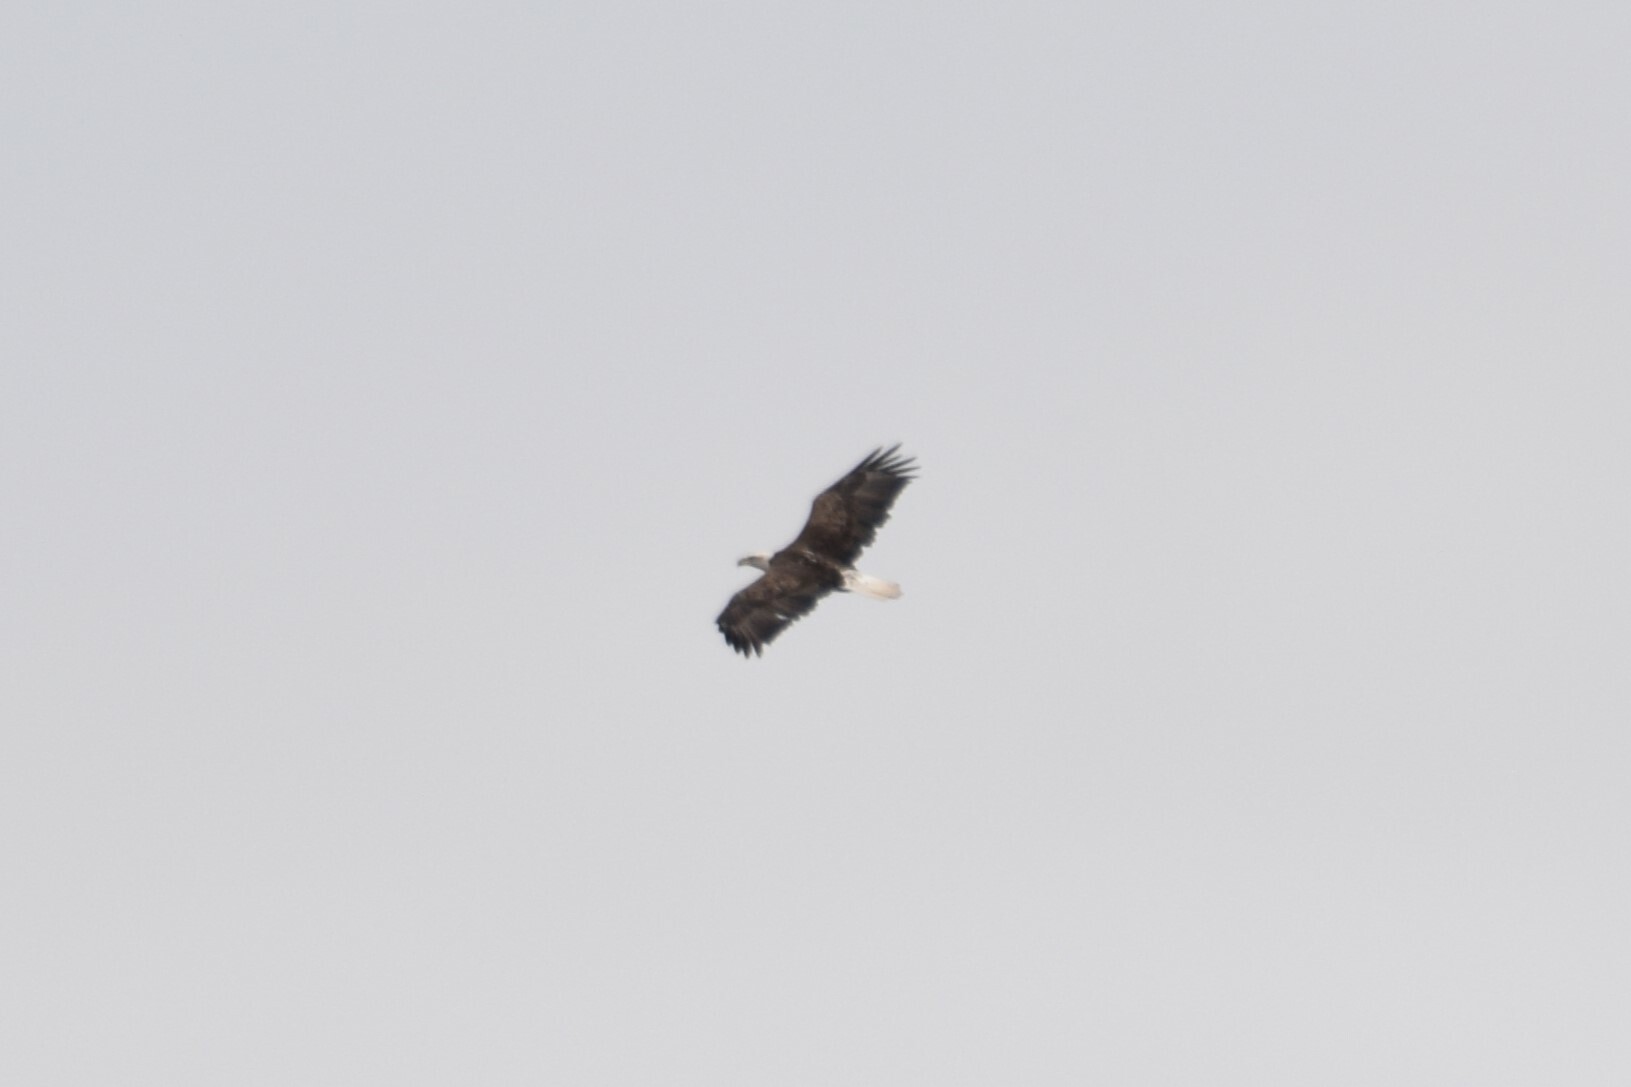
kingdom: Animalia
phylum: Chordata
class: Aves
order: Accipitriformes
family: Accipitridae
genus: Haliaeetus
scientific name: Haliaeetus leucocephalus
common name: Bald eagle
